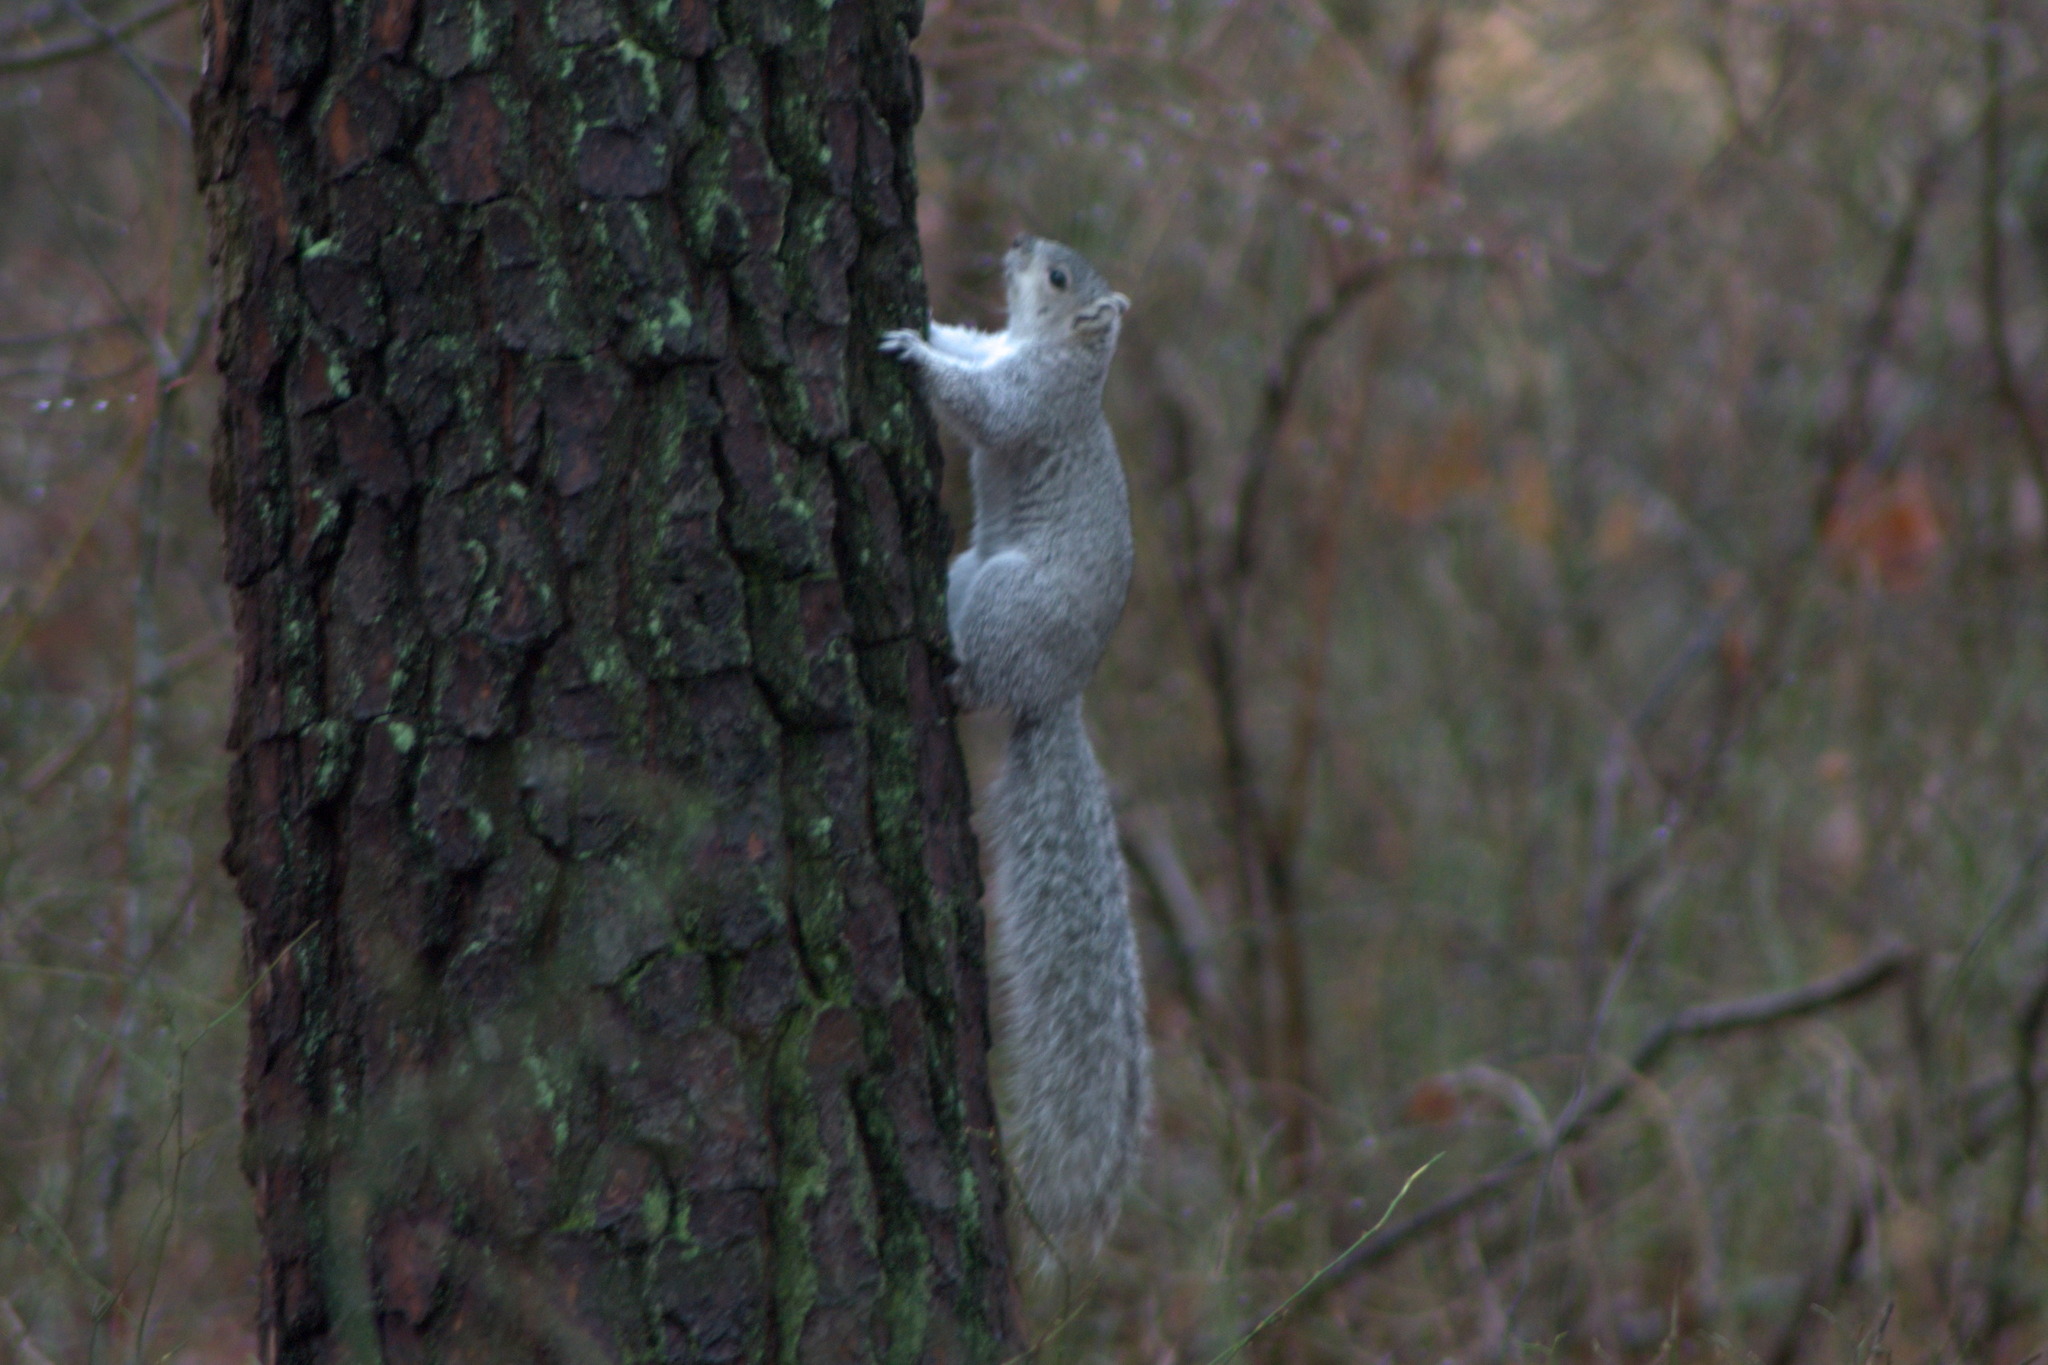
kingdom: Animalia
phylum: Chordata
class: Mammalia
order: Rodentia
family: Sciuridae
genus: Sciurus
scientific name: Sciurus niger
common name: Fox squirrel
